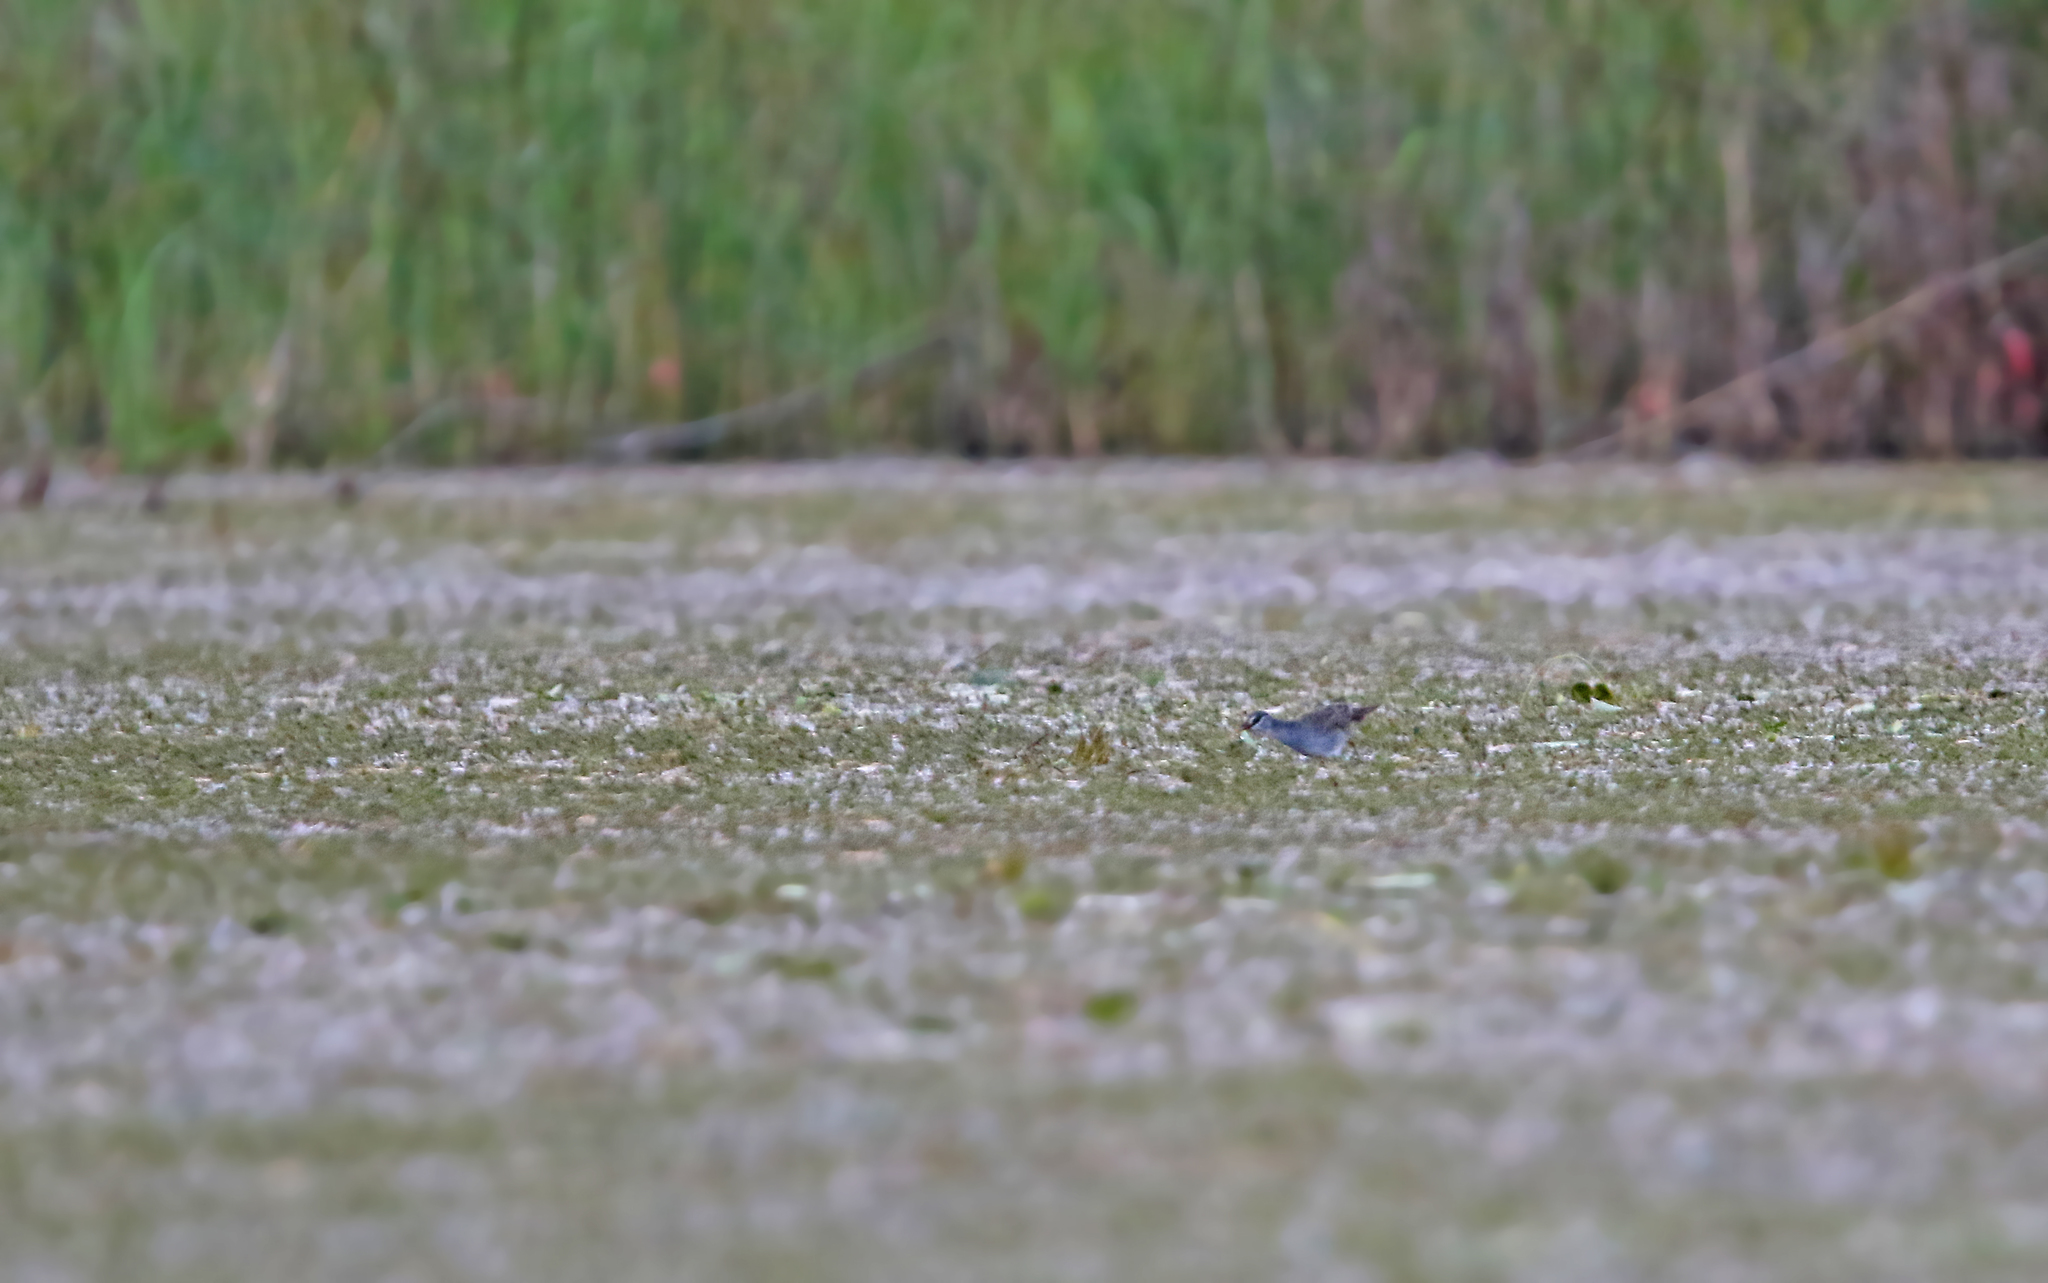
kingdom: Animalia
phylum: Chordata
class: Aves
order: Gruiformes
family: Rallidae
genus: Porzana
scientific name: Porzana cinerea
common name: White-browed crake
